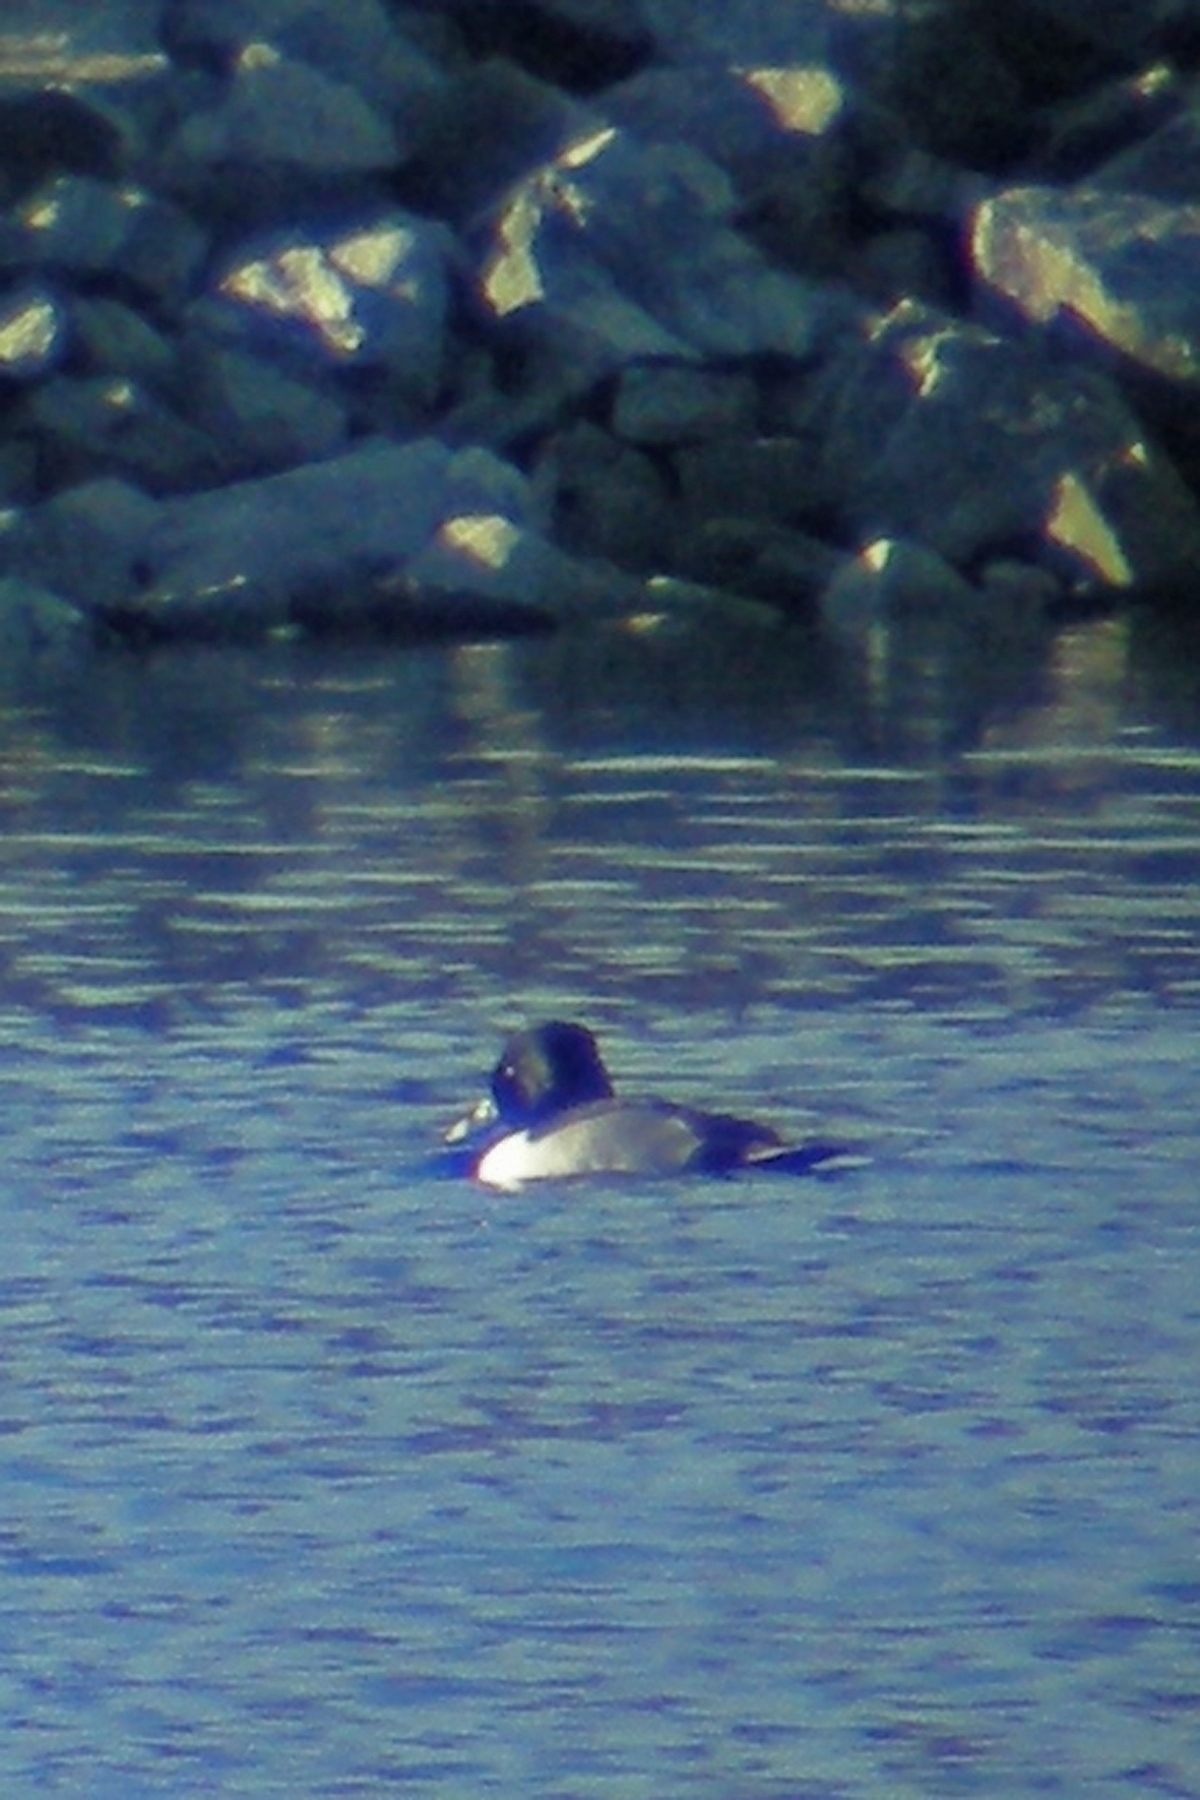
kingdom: Animalia
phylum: Chordata
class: Aves
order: Anseriformes
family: Anatidae
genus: Aythya
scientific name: Aythya collaris
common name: Ring-necked duck
